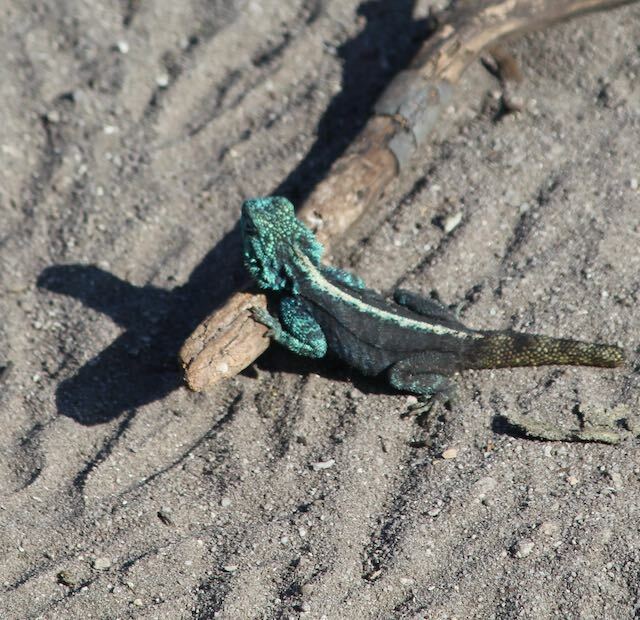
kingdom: Animalia
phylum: Chordata
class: Squamata
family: Agamidae
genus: Agama
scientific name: Agama atra
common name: Southern african rock agama
